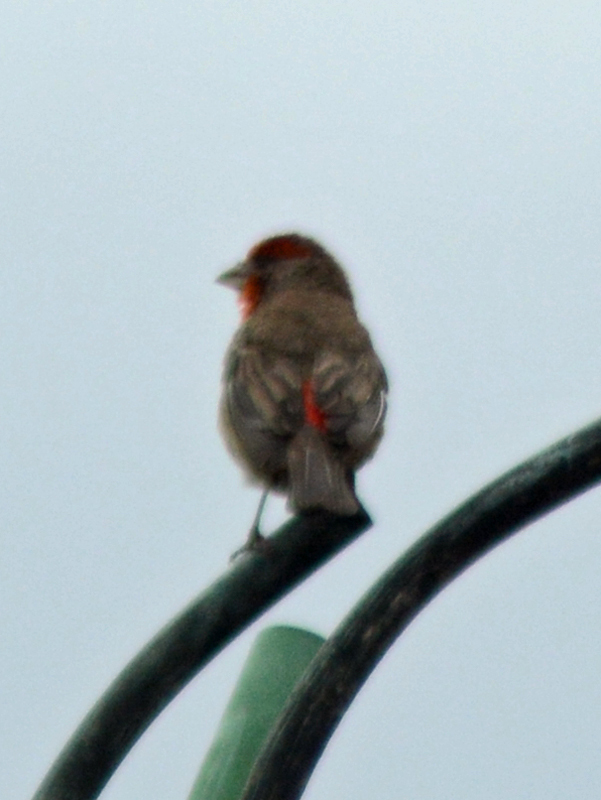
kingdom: Animalia
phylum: Chordata
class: Aves
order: Passeriformes
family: Fringillidae
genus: Haemorhous
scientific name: Haemorhous mexicanus
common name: House finch
